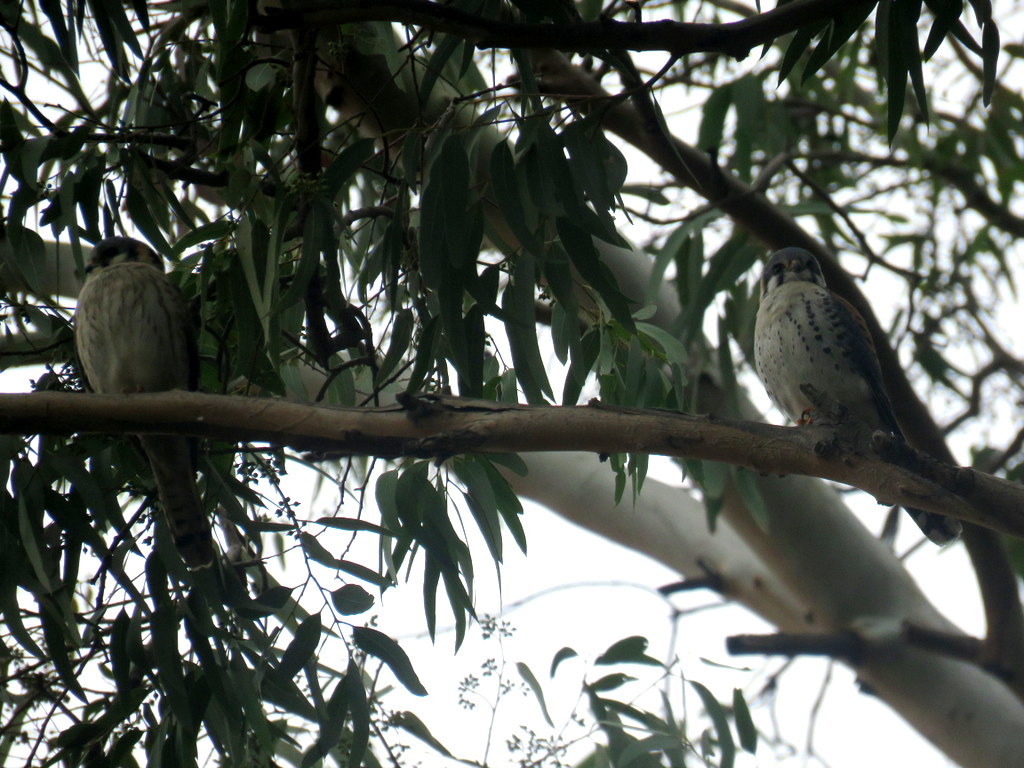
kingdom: Animalia
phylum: Chordata
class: Aves
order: Falconiformes
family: Falconidae
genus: Falco
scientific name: Falco sparverius
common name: American kestrel
